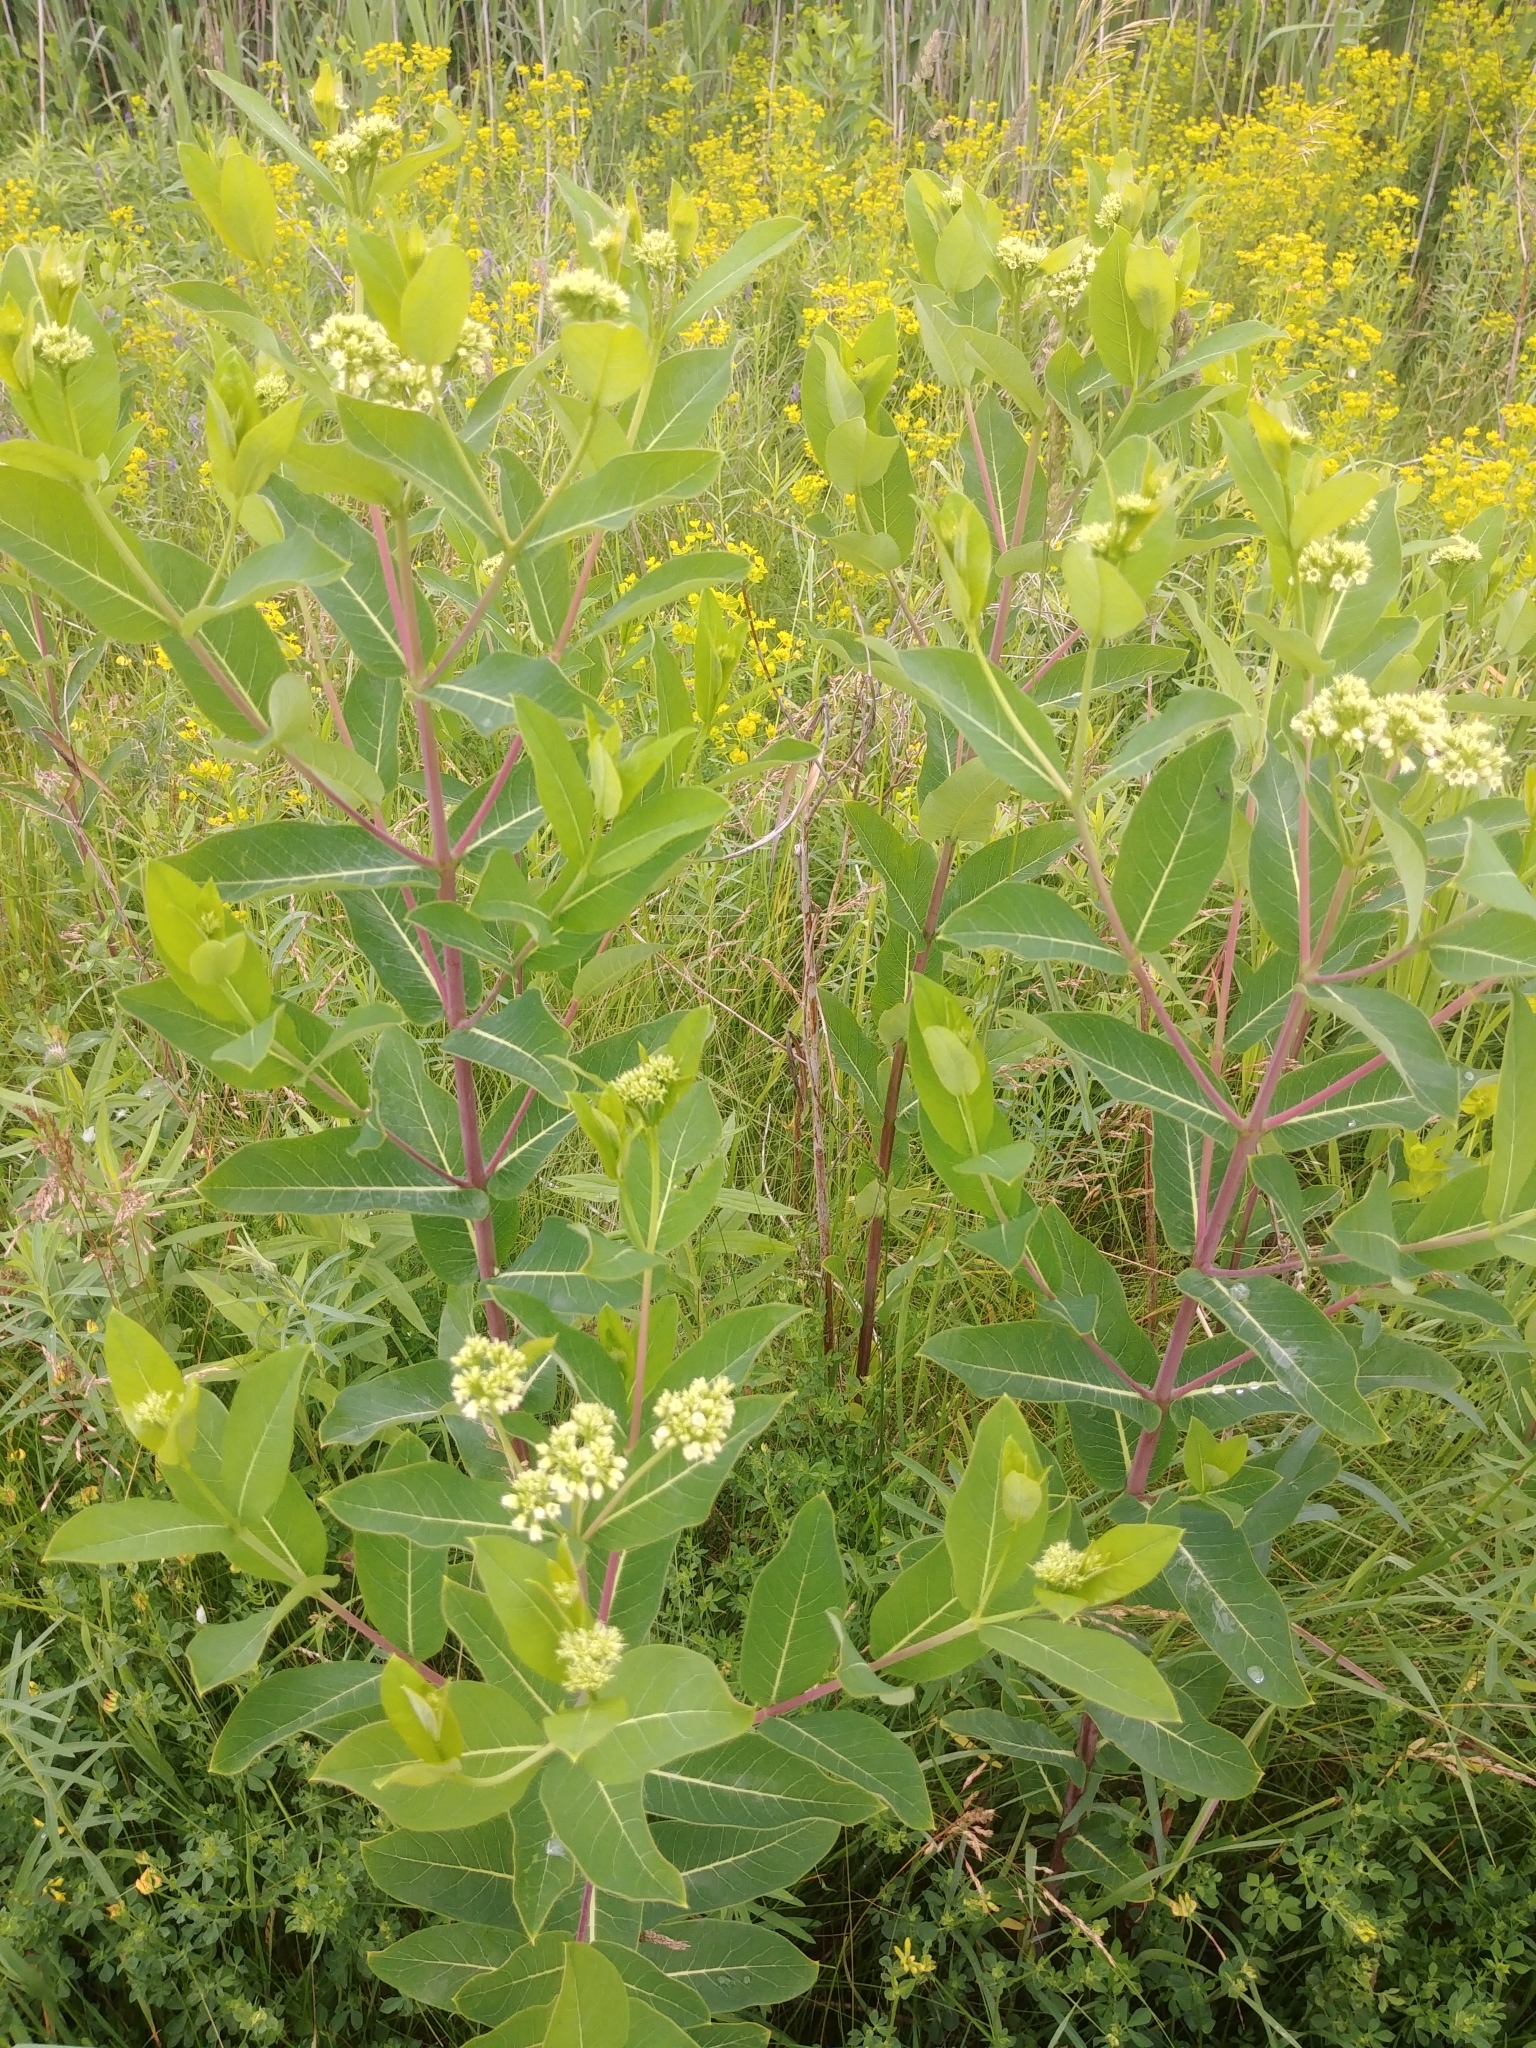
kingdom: Plantae
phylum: Tracheophyta
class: Magnoliopsida
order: Gentianales
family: Apocynaceae
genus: Apocynum
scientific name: Apocynum cannabinum
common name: Hemp dogbane
